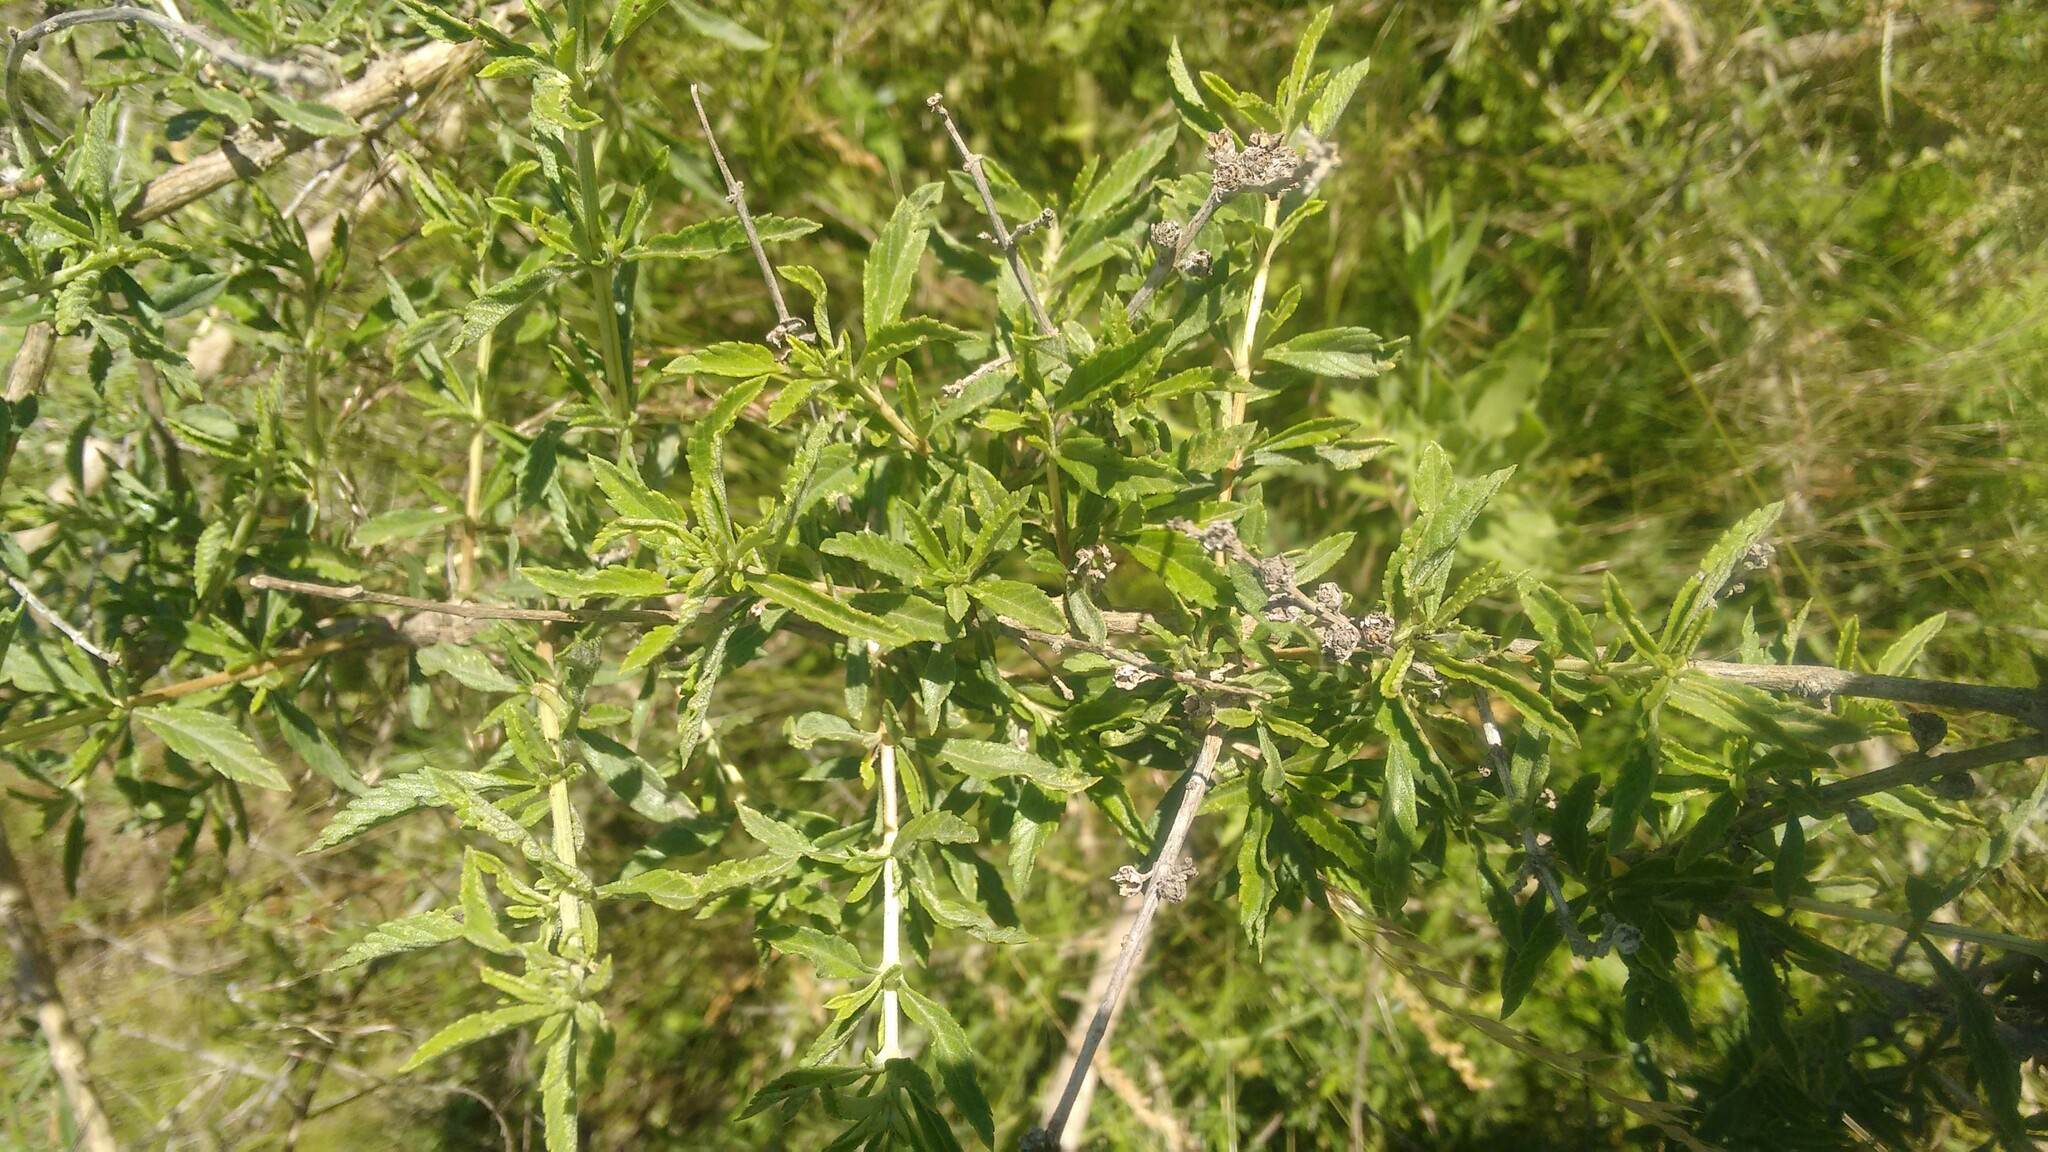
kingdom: Plantae
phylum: Tracheophyta
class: Magnoliopsida
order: Lamiales
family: Verbenaceae
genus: Lippia
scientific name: Lippia turbinata
